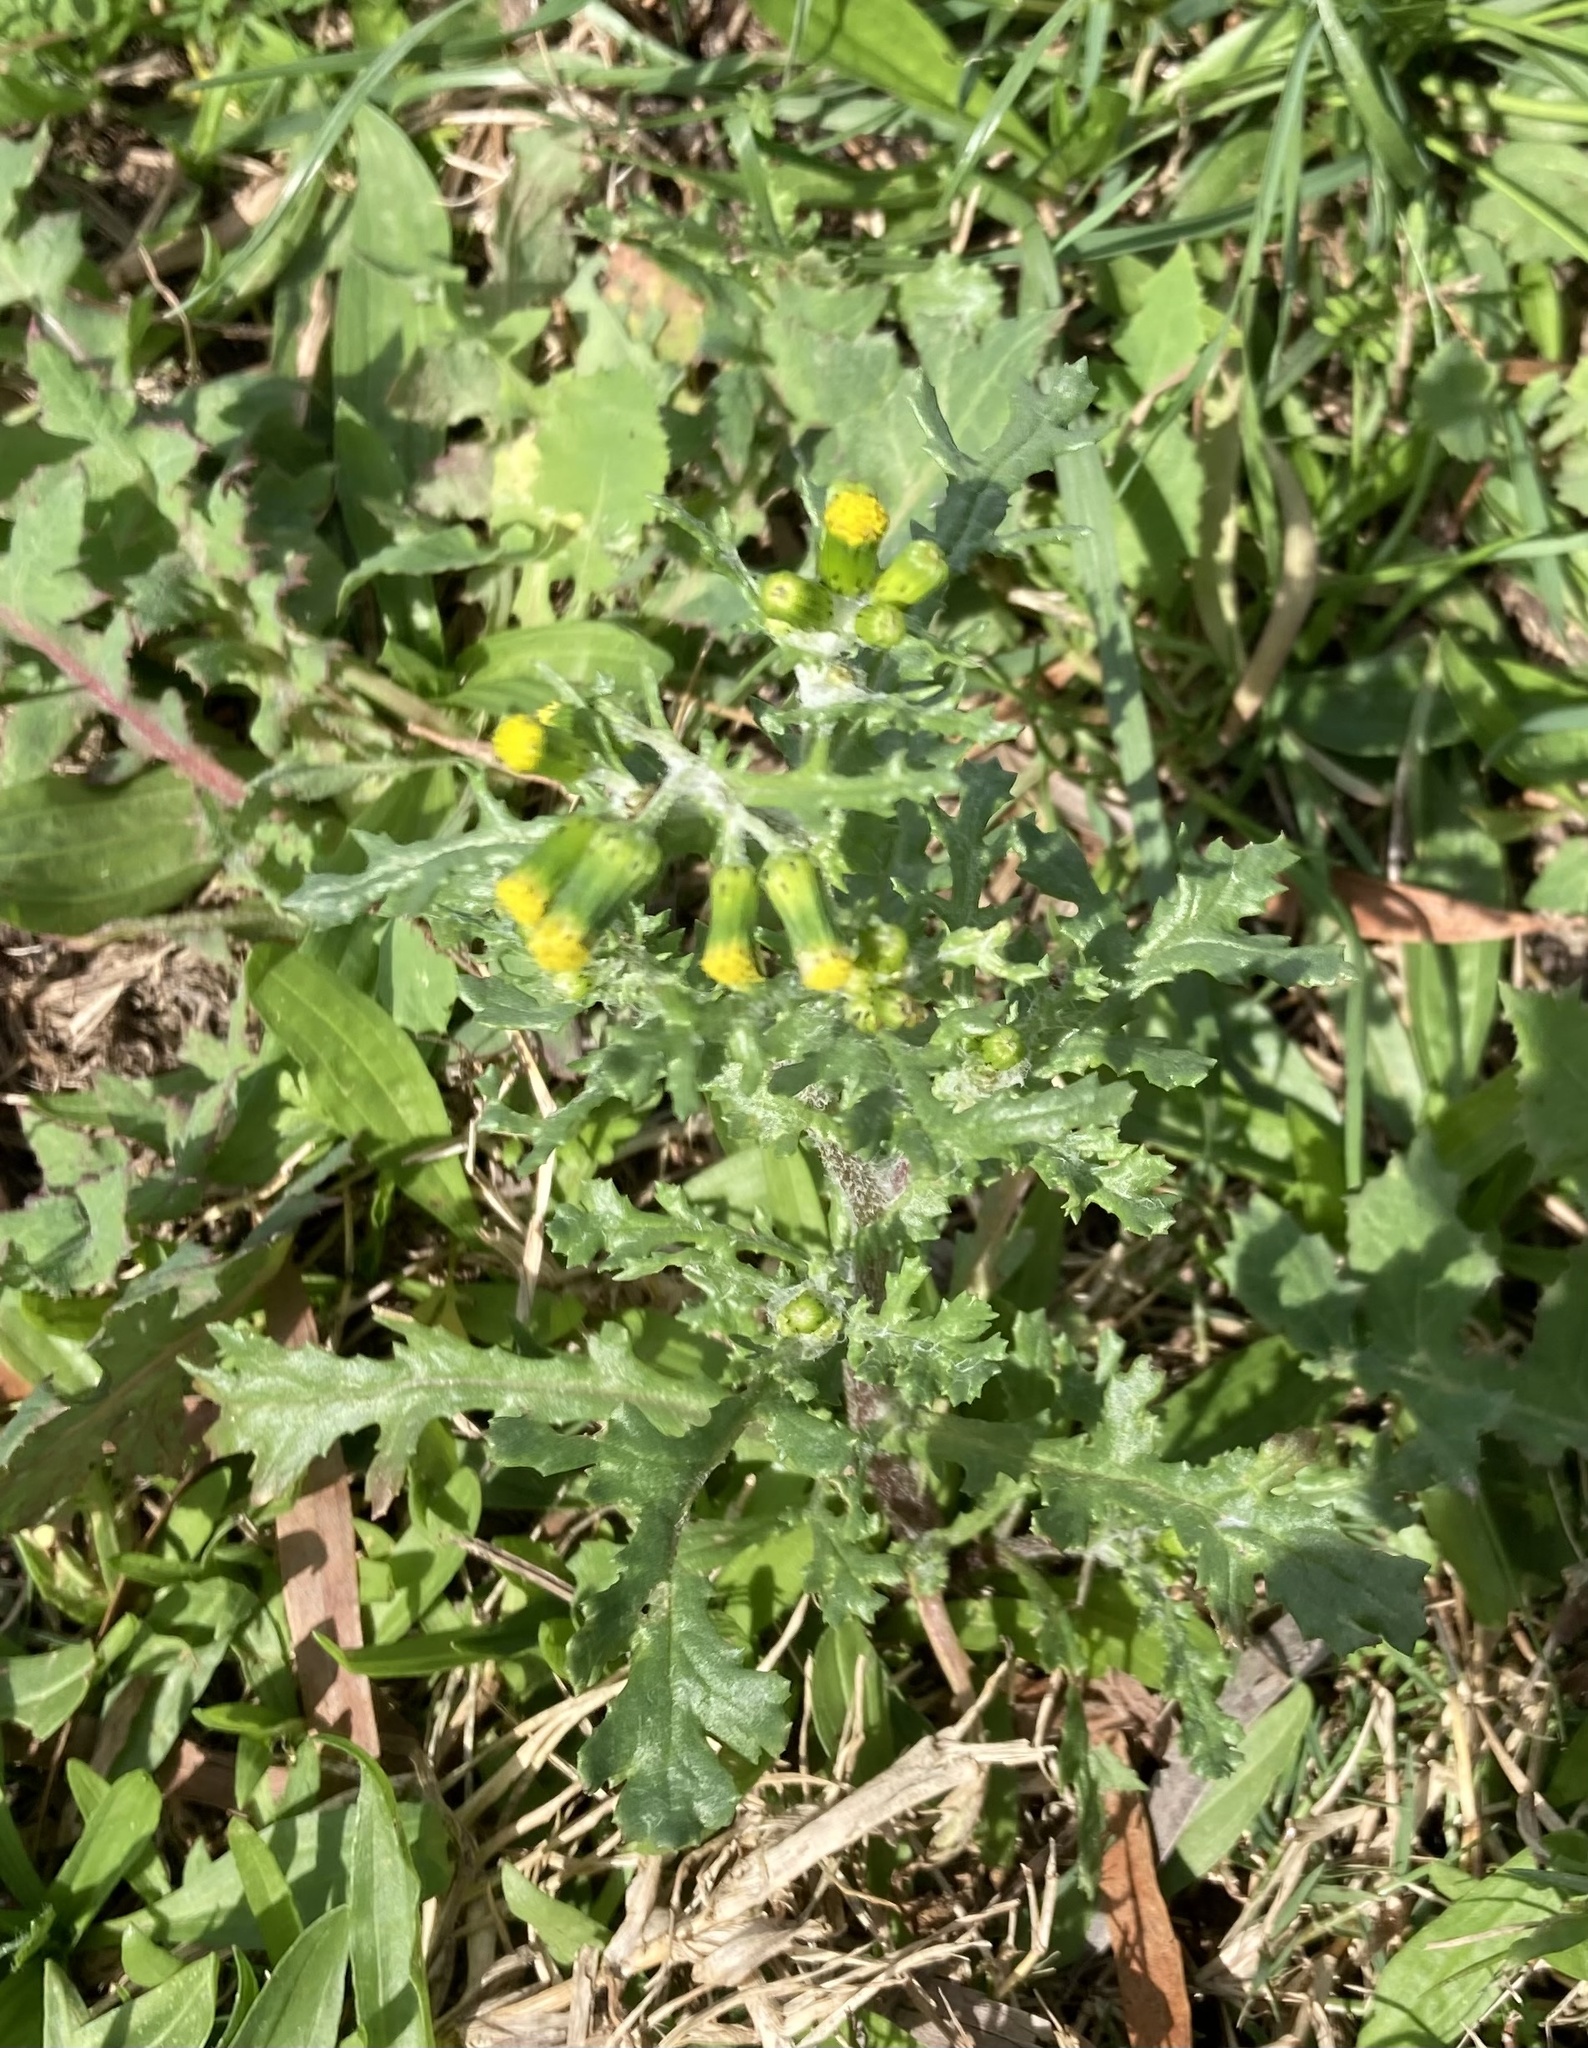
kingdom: Plantae
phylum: Tracheophyta
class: Magnoliopsida
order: Asterales
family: Asteraceae
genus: Senecio
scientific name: Senecio vulgaris
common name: Old-man-in-the-spring
